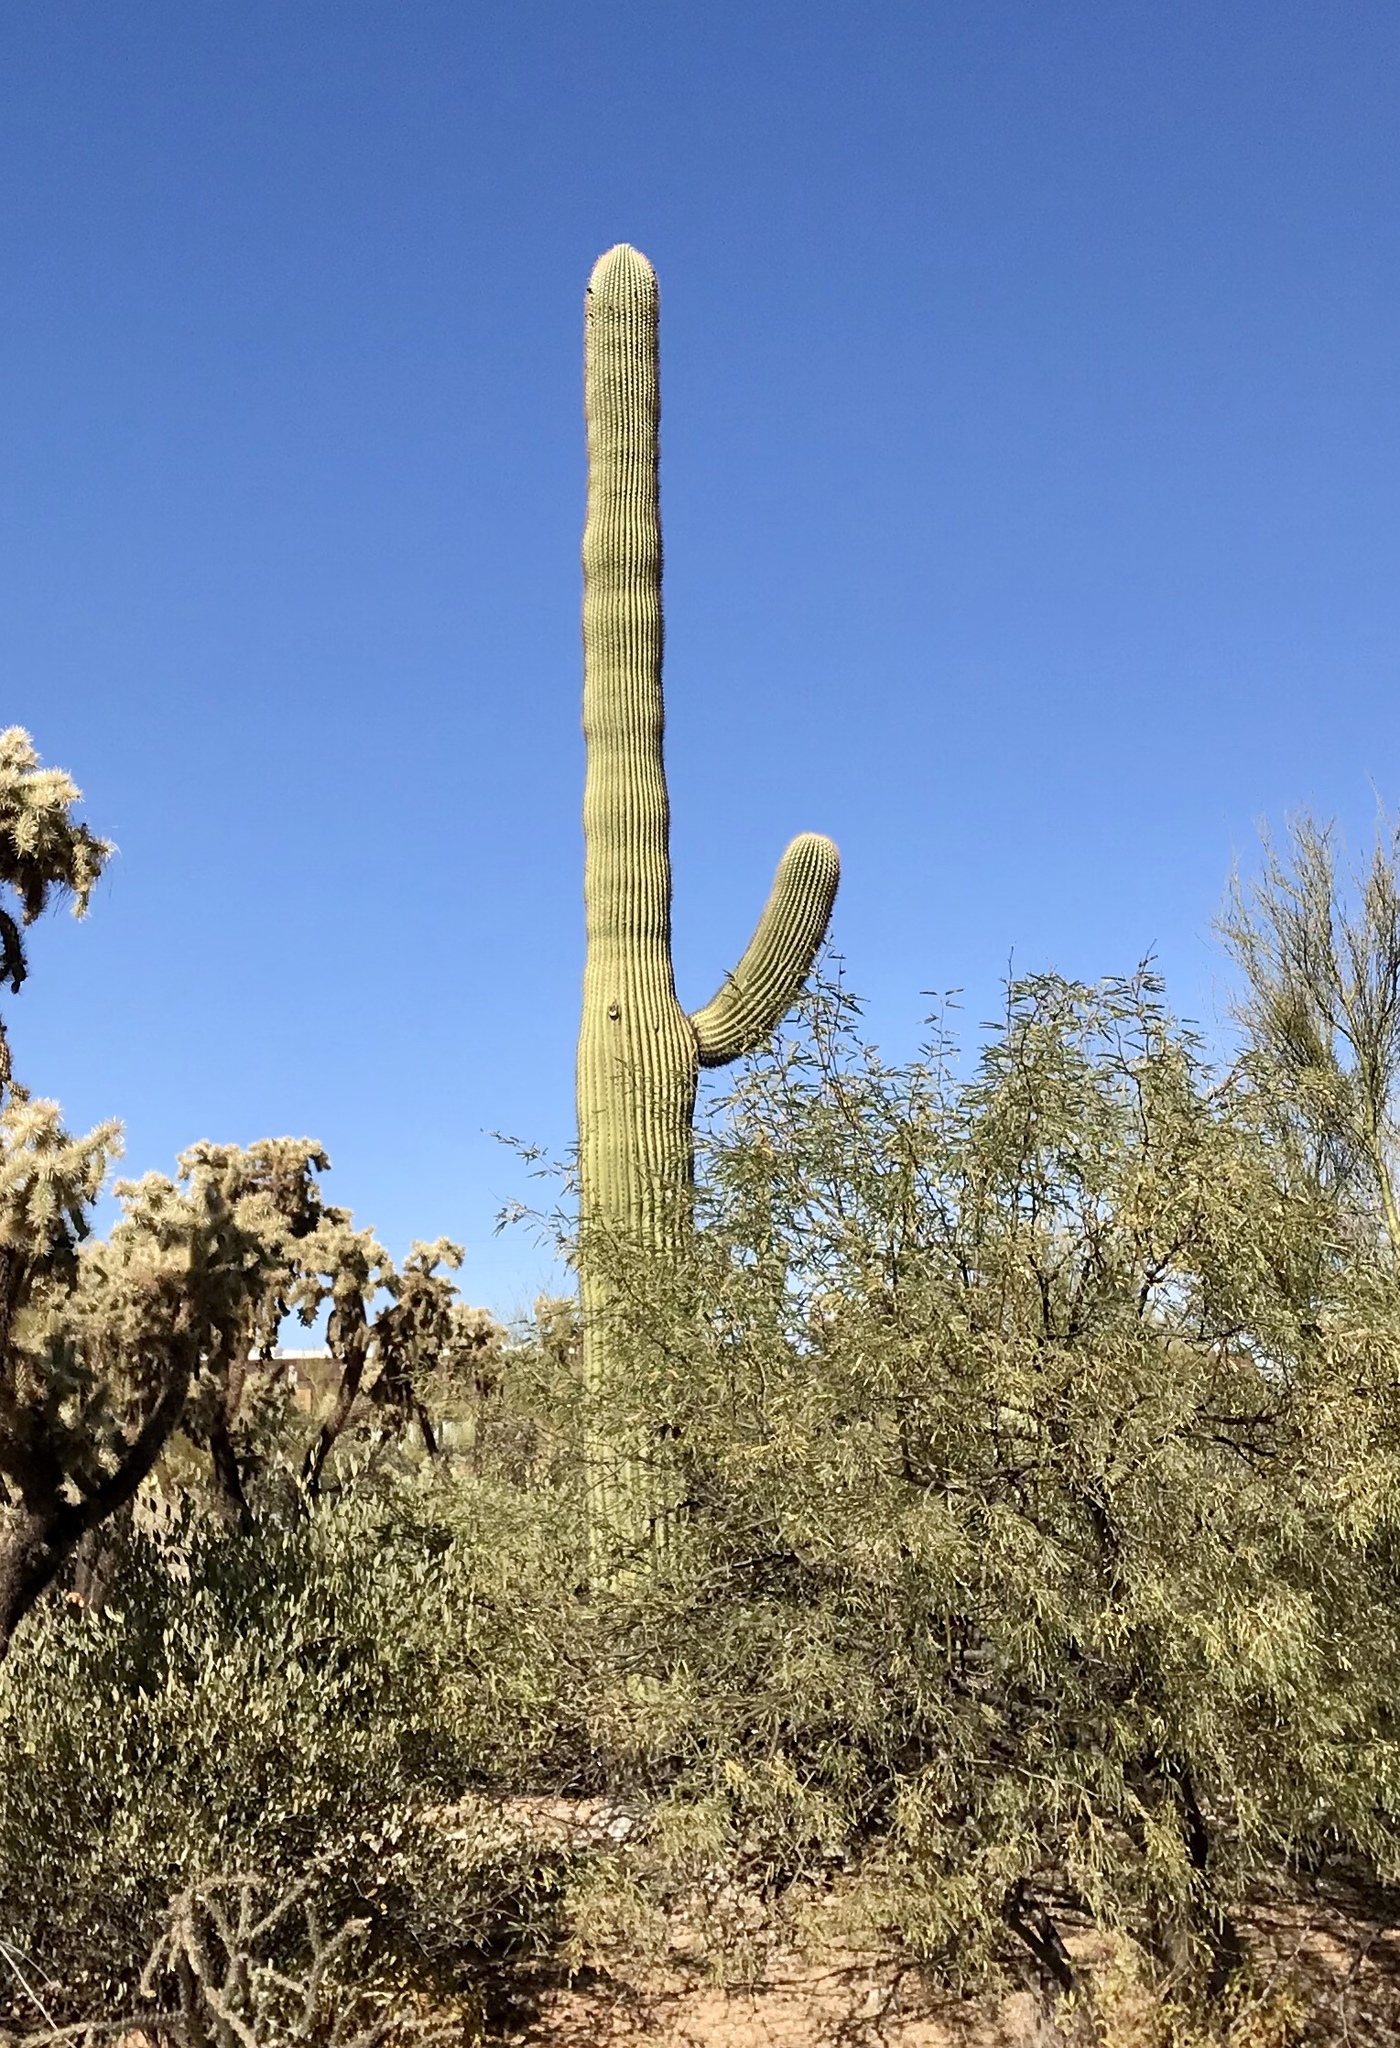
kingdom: Plantae
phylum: Tracheophyta
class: Magnoliopsida
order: Caryophyllales
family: Cactaceae
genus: Carnegiea
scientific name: Carnegiea gigantea
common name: Saguaro
